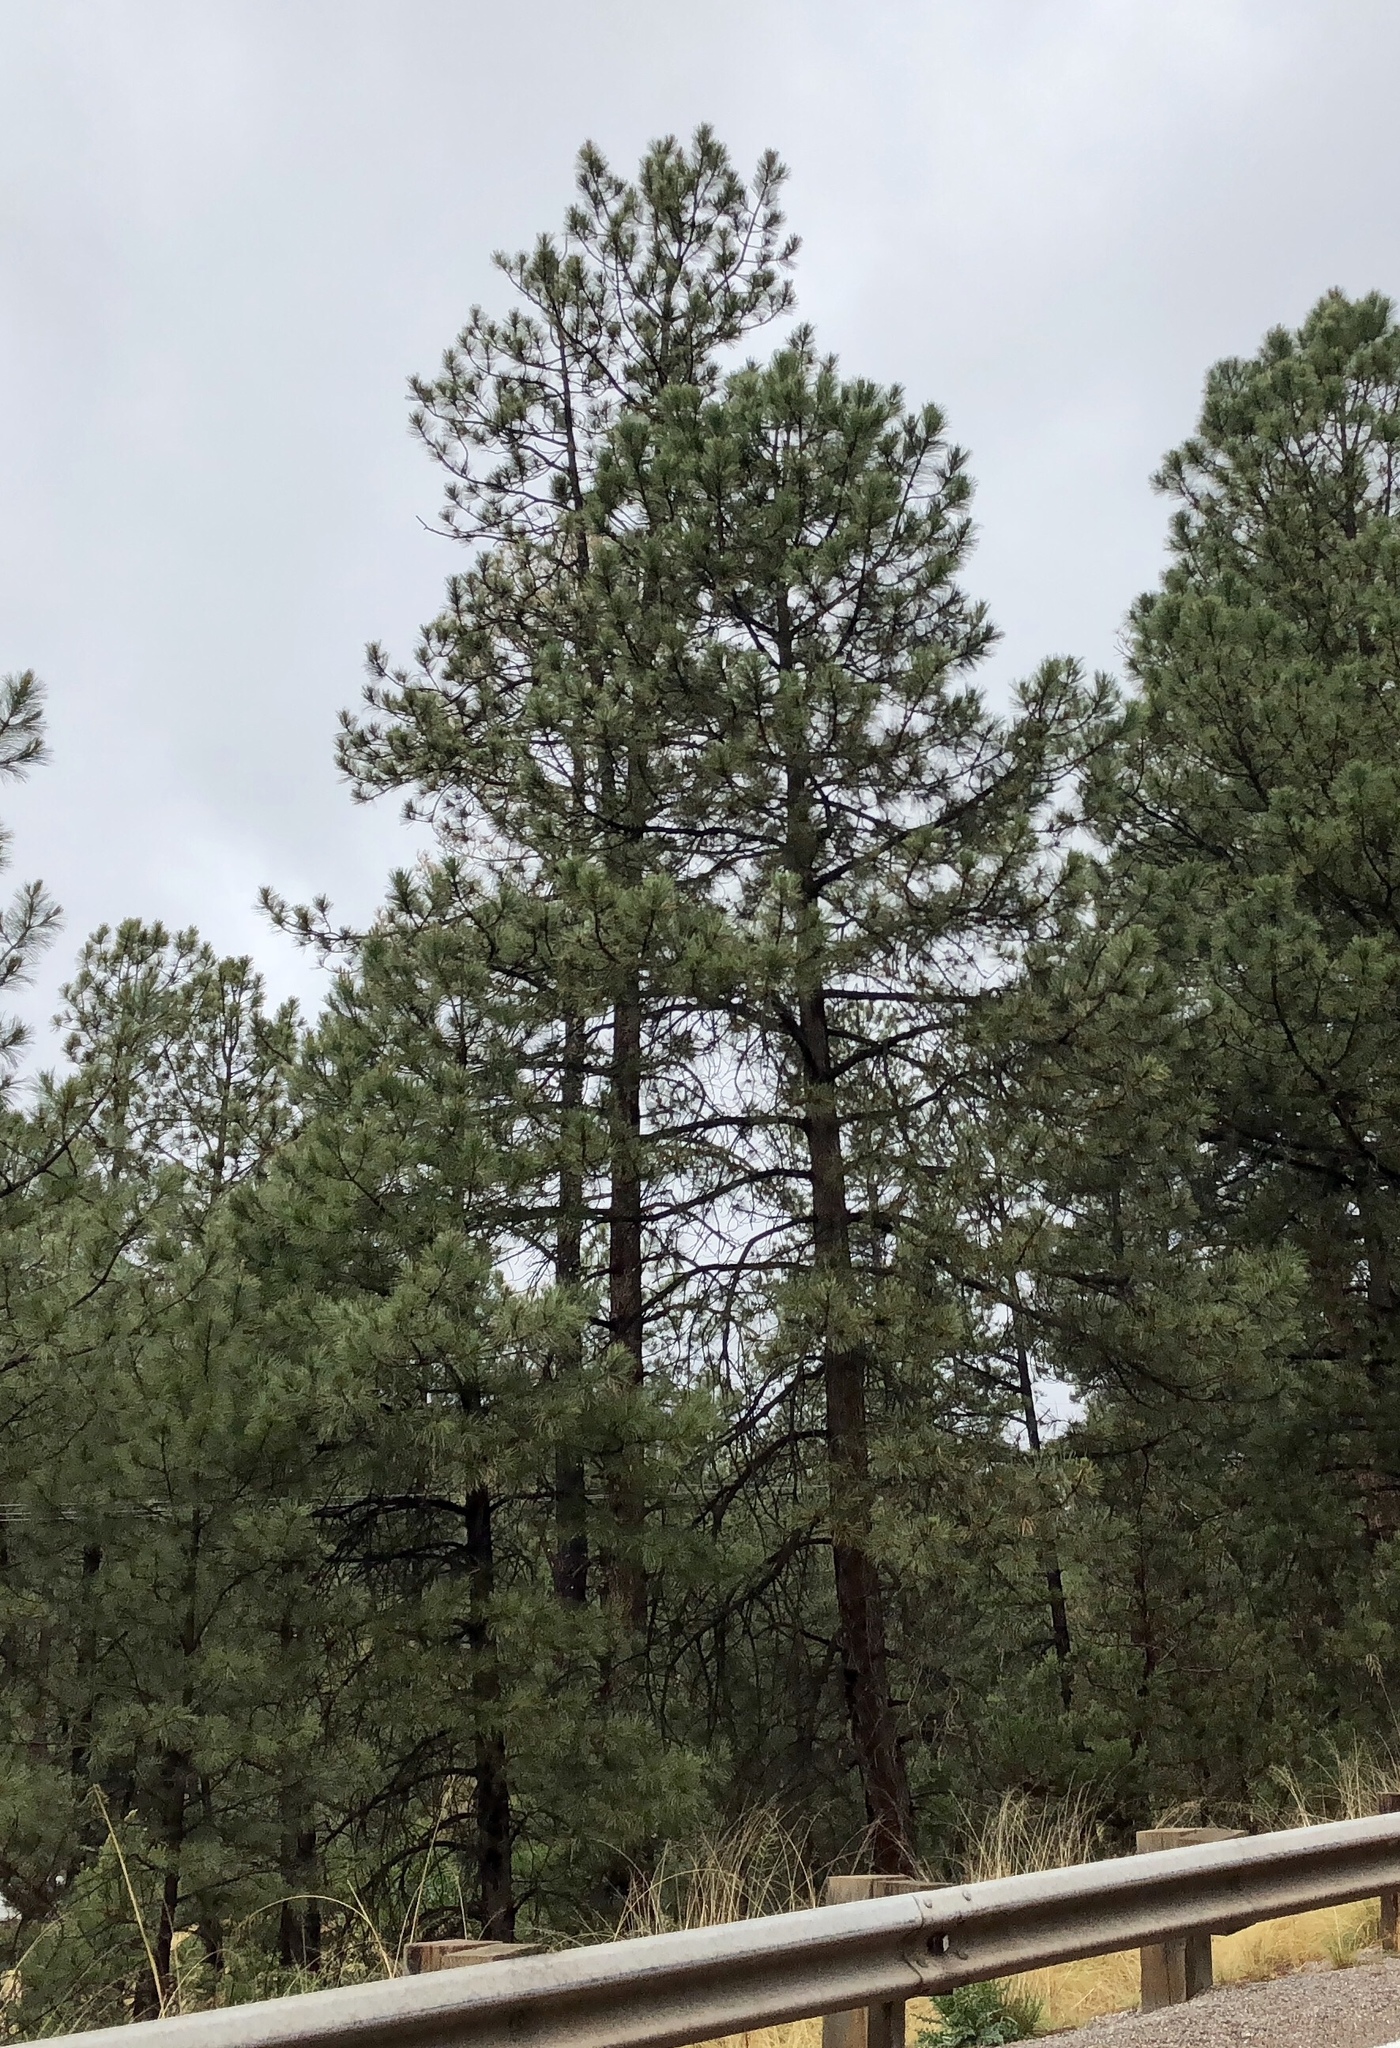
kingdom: Plantae
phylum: Tracheophyta
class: Pinopsida
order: Pinales
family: Pinaceae
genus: Pinus
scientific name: Pinus ponderosa
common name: Western yellow-pine
